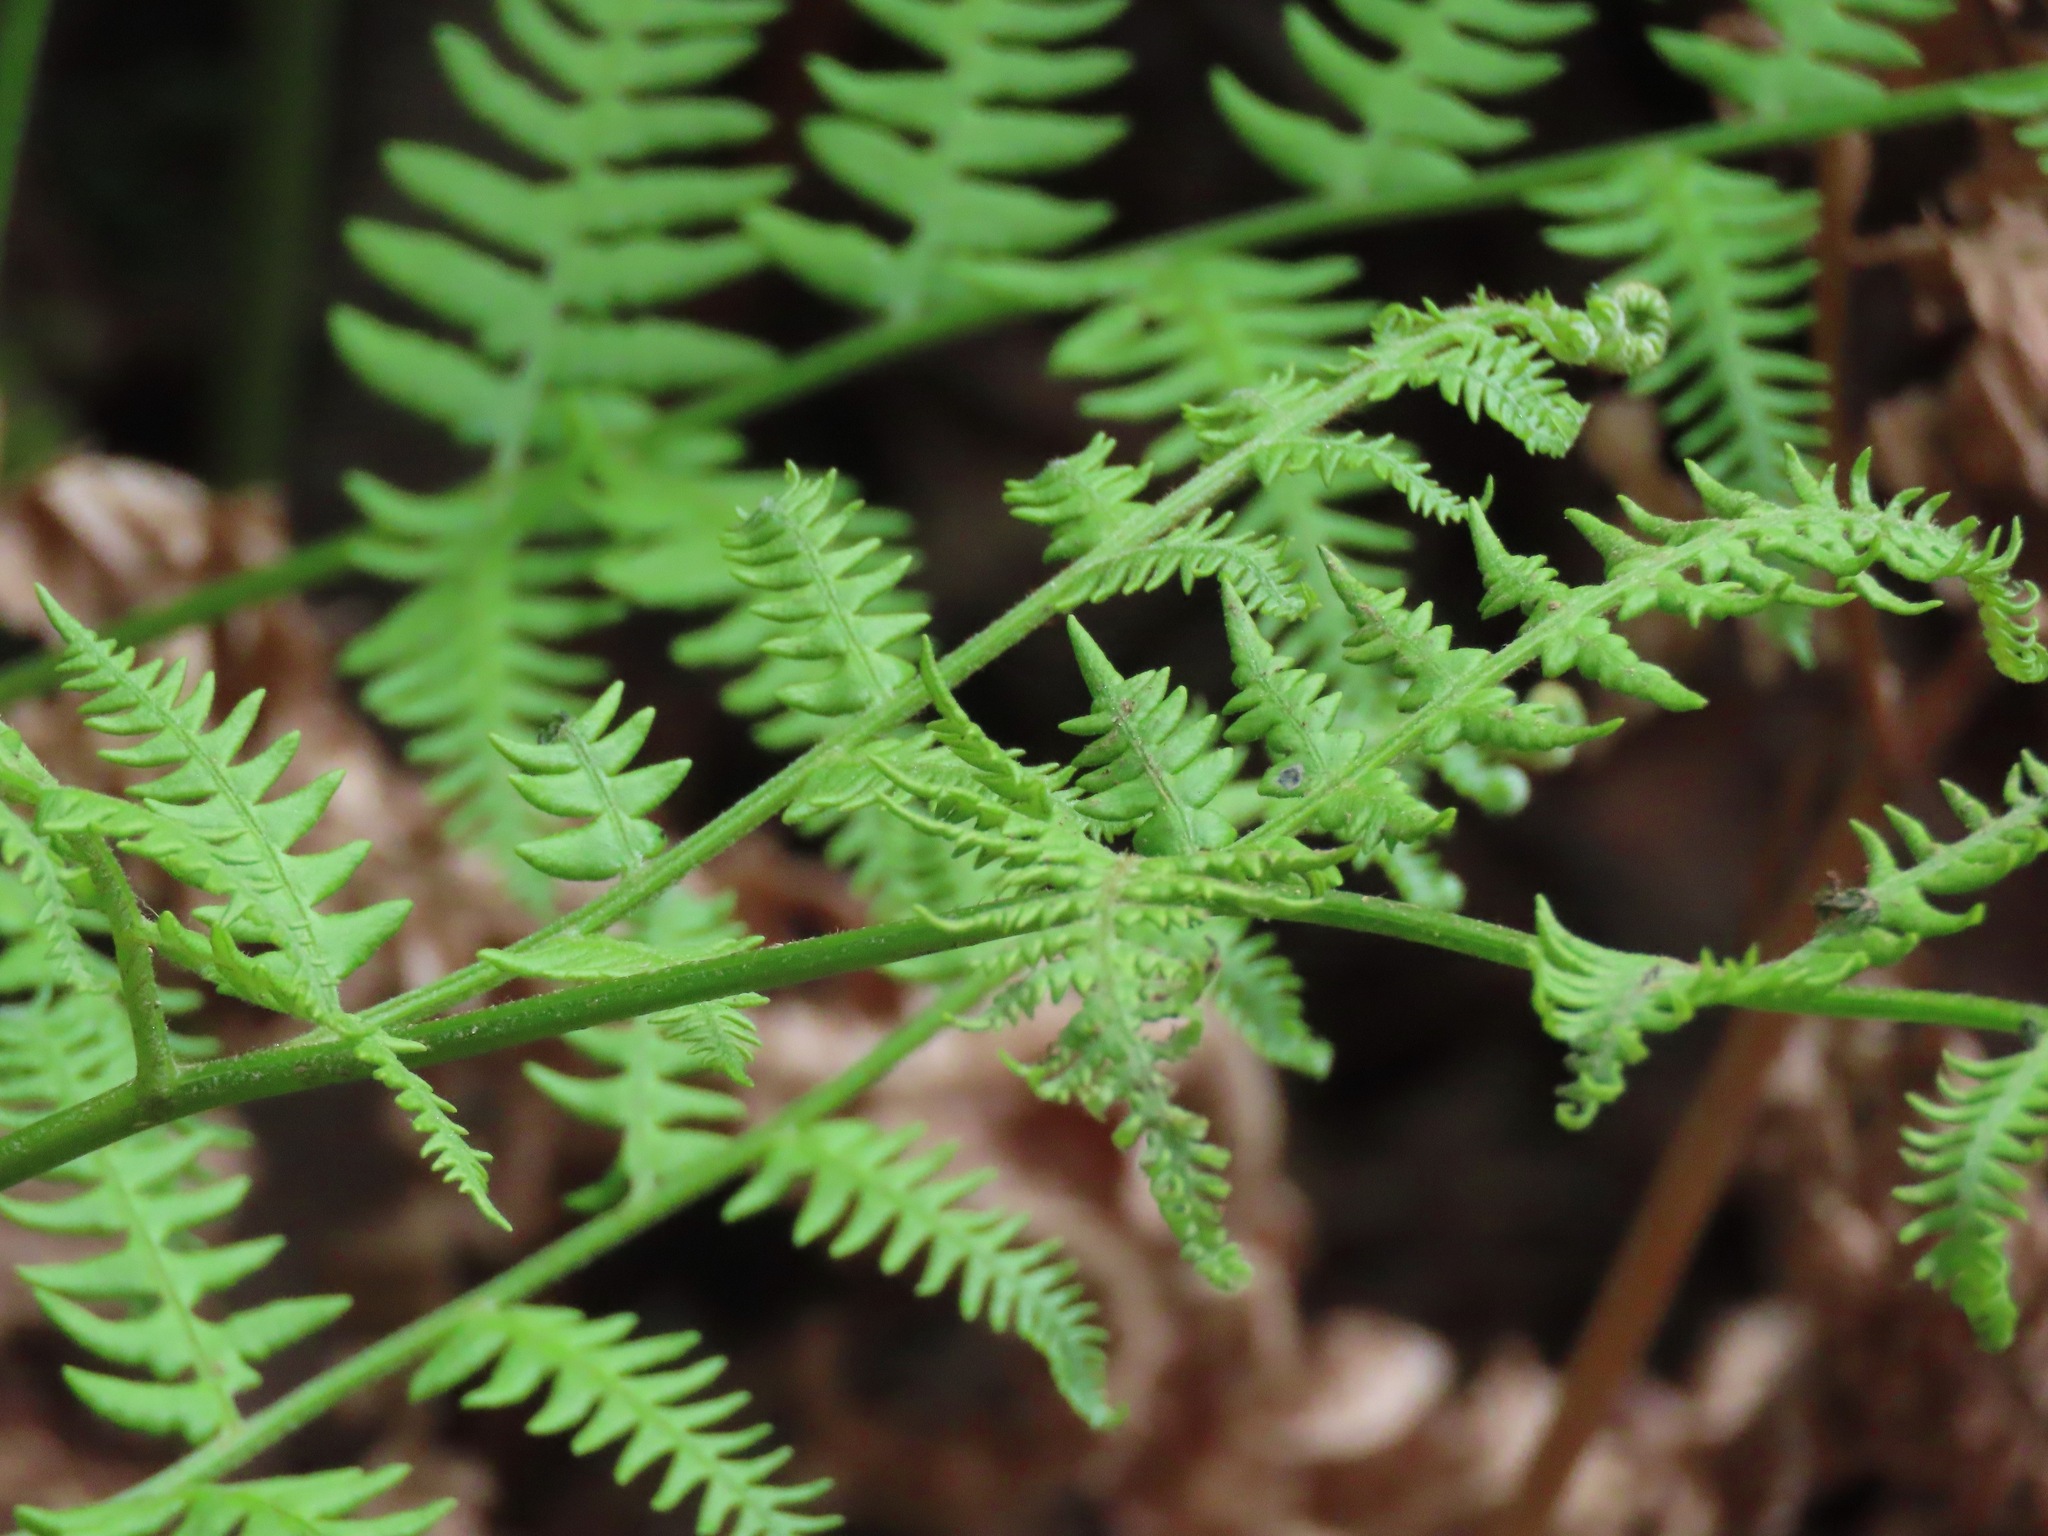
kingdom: Plantae
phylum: Tracheophyta
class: Polypodiopsida
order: Polypodiales
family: Dennstaedtiaceae
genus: Pteridium
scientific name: Pteridium aquilinum
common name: Bracken
